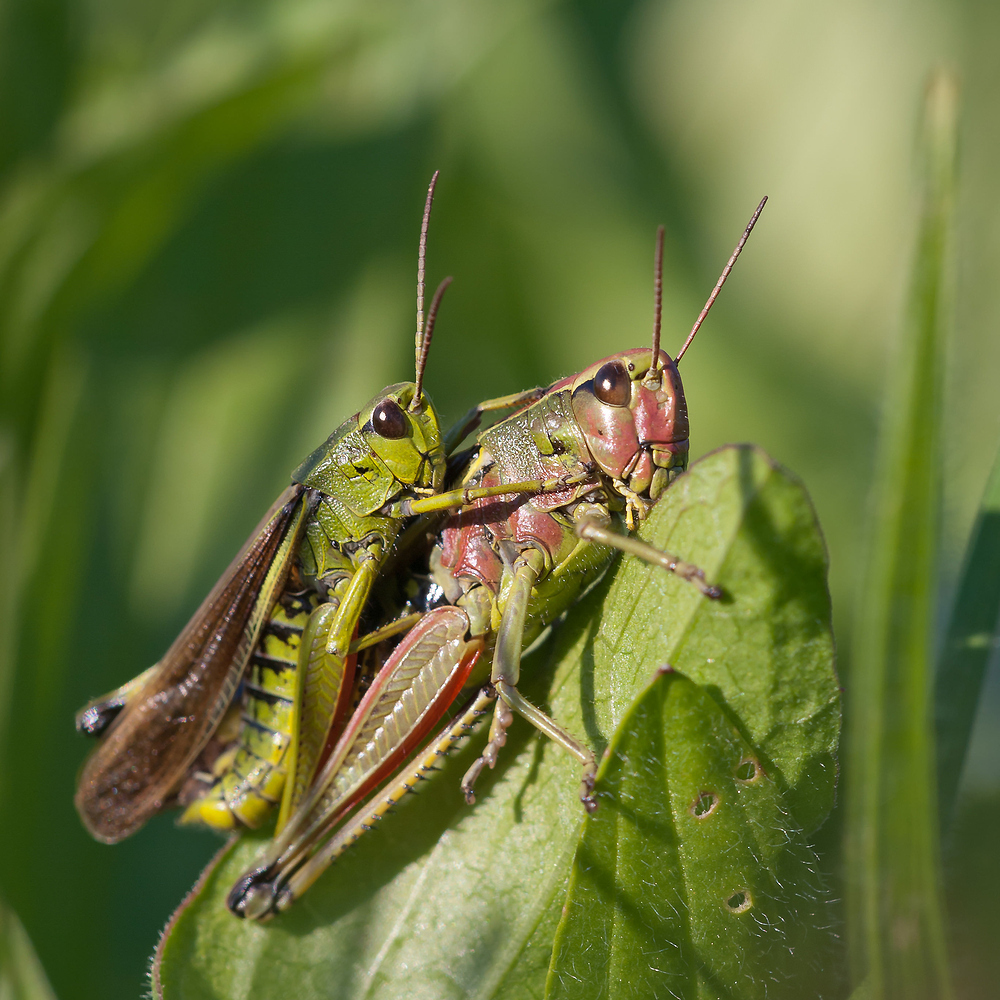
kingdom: Animalia
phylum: Arthropoda
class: Insecta
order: Orthoptera
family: Acrididae
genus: Stethophyma
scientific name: Stethophyma grossum
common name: Large marsh grasshopper
